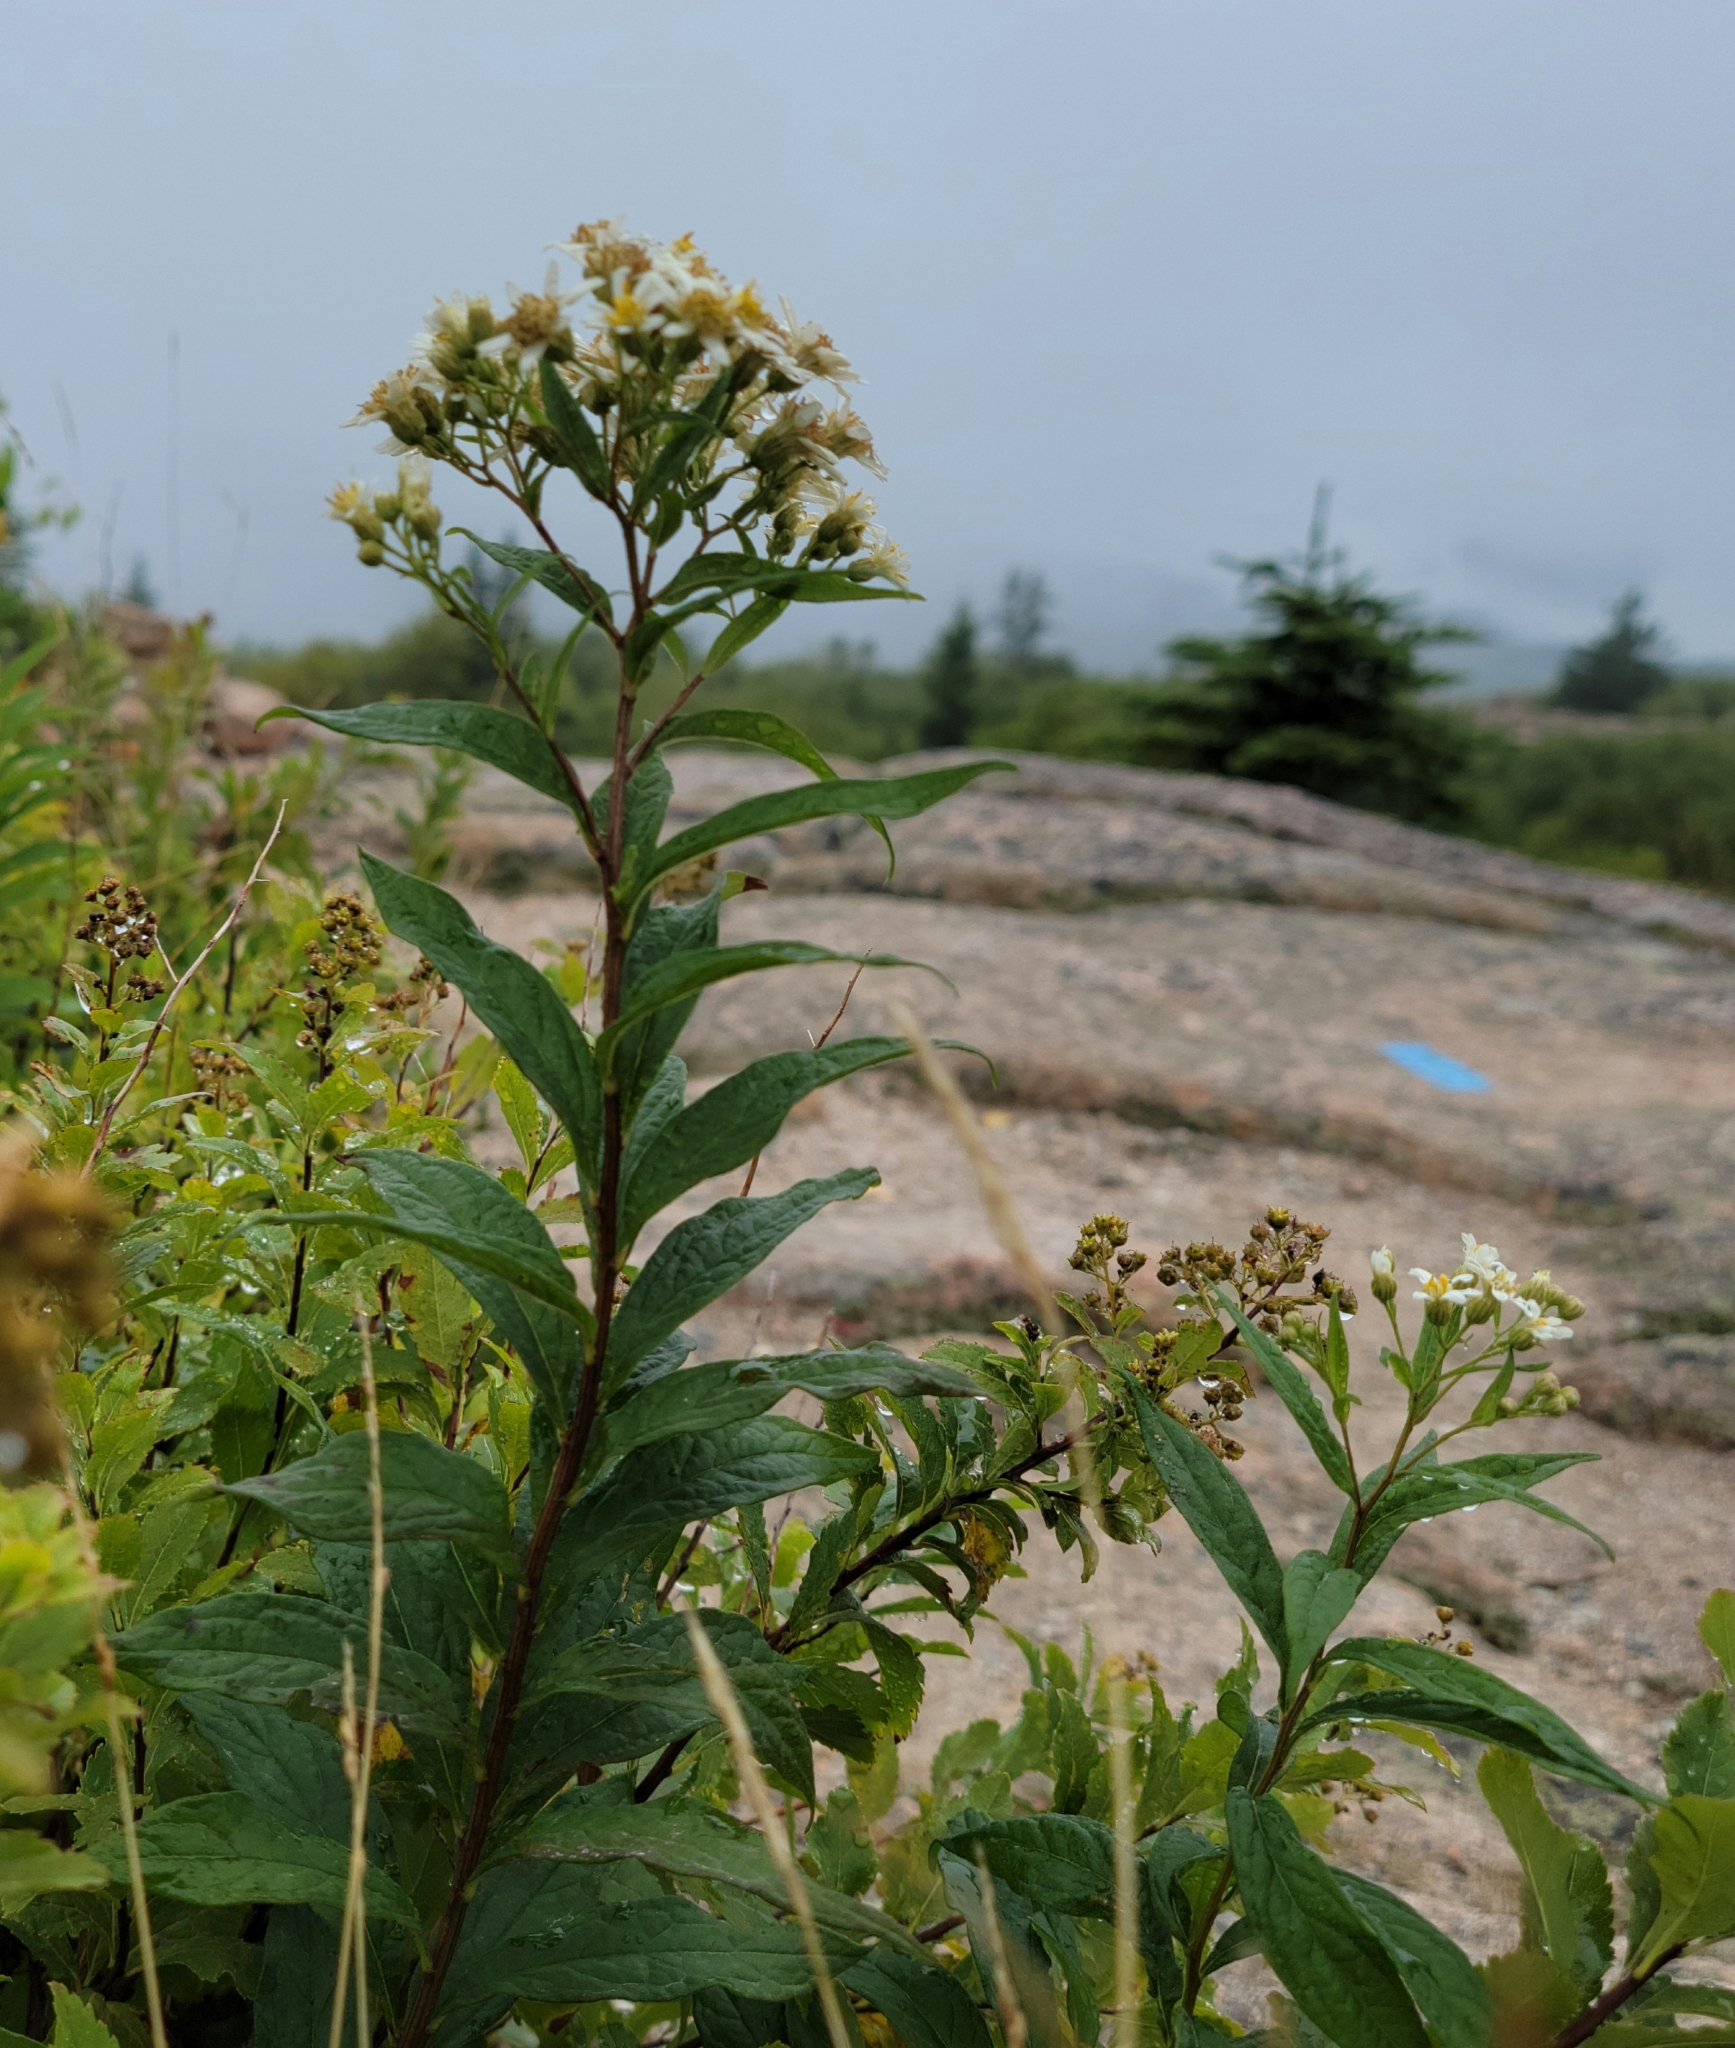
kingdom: Plantae
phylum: Tracheophyta
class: Magnoliopsida
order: Asterales
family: Asteraceae
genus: Doellingeria
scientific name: Doellingeria umbellata
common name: Flat-top white aster
